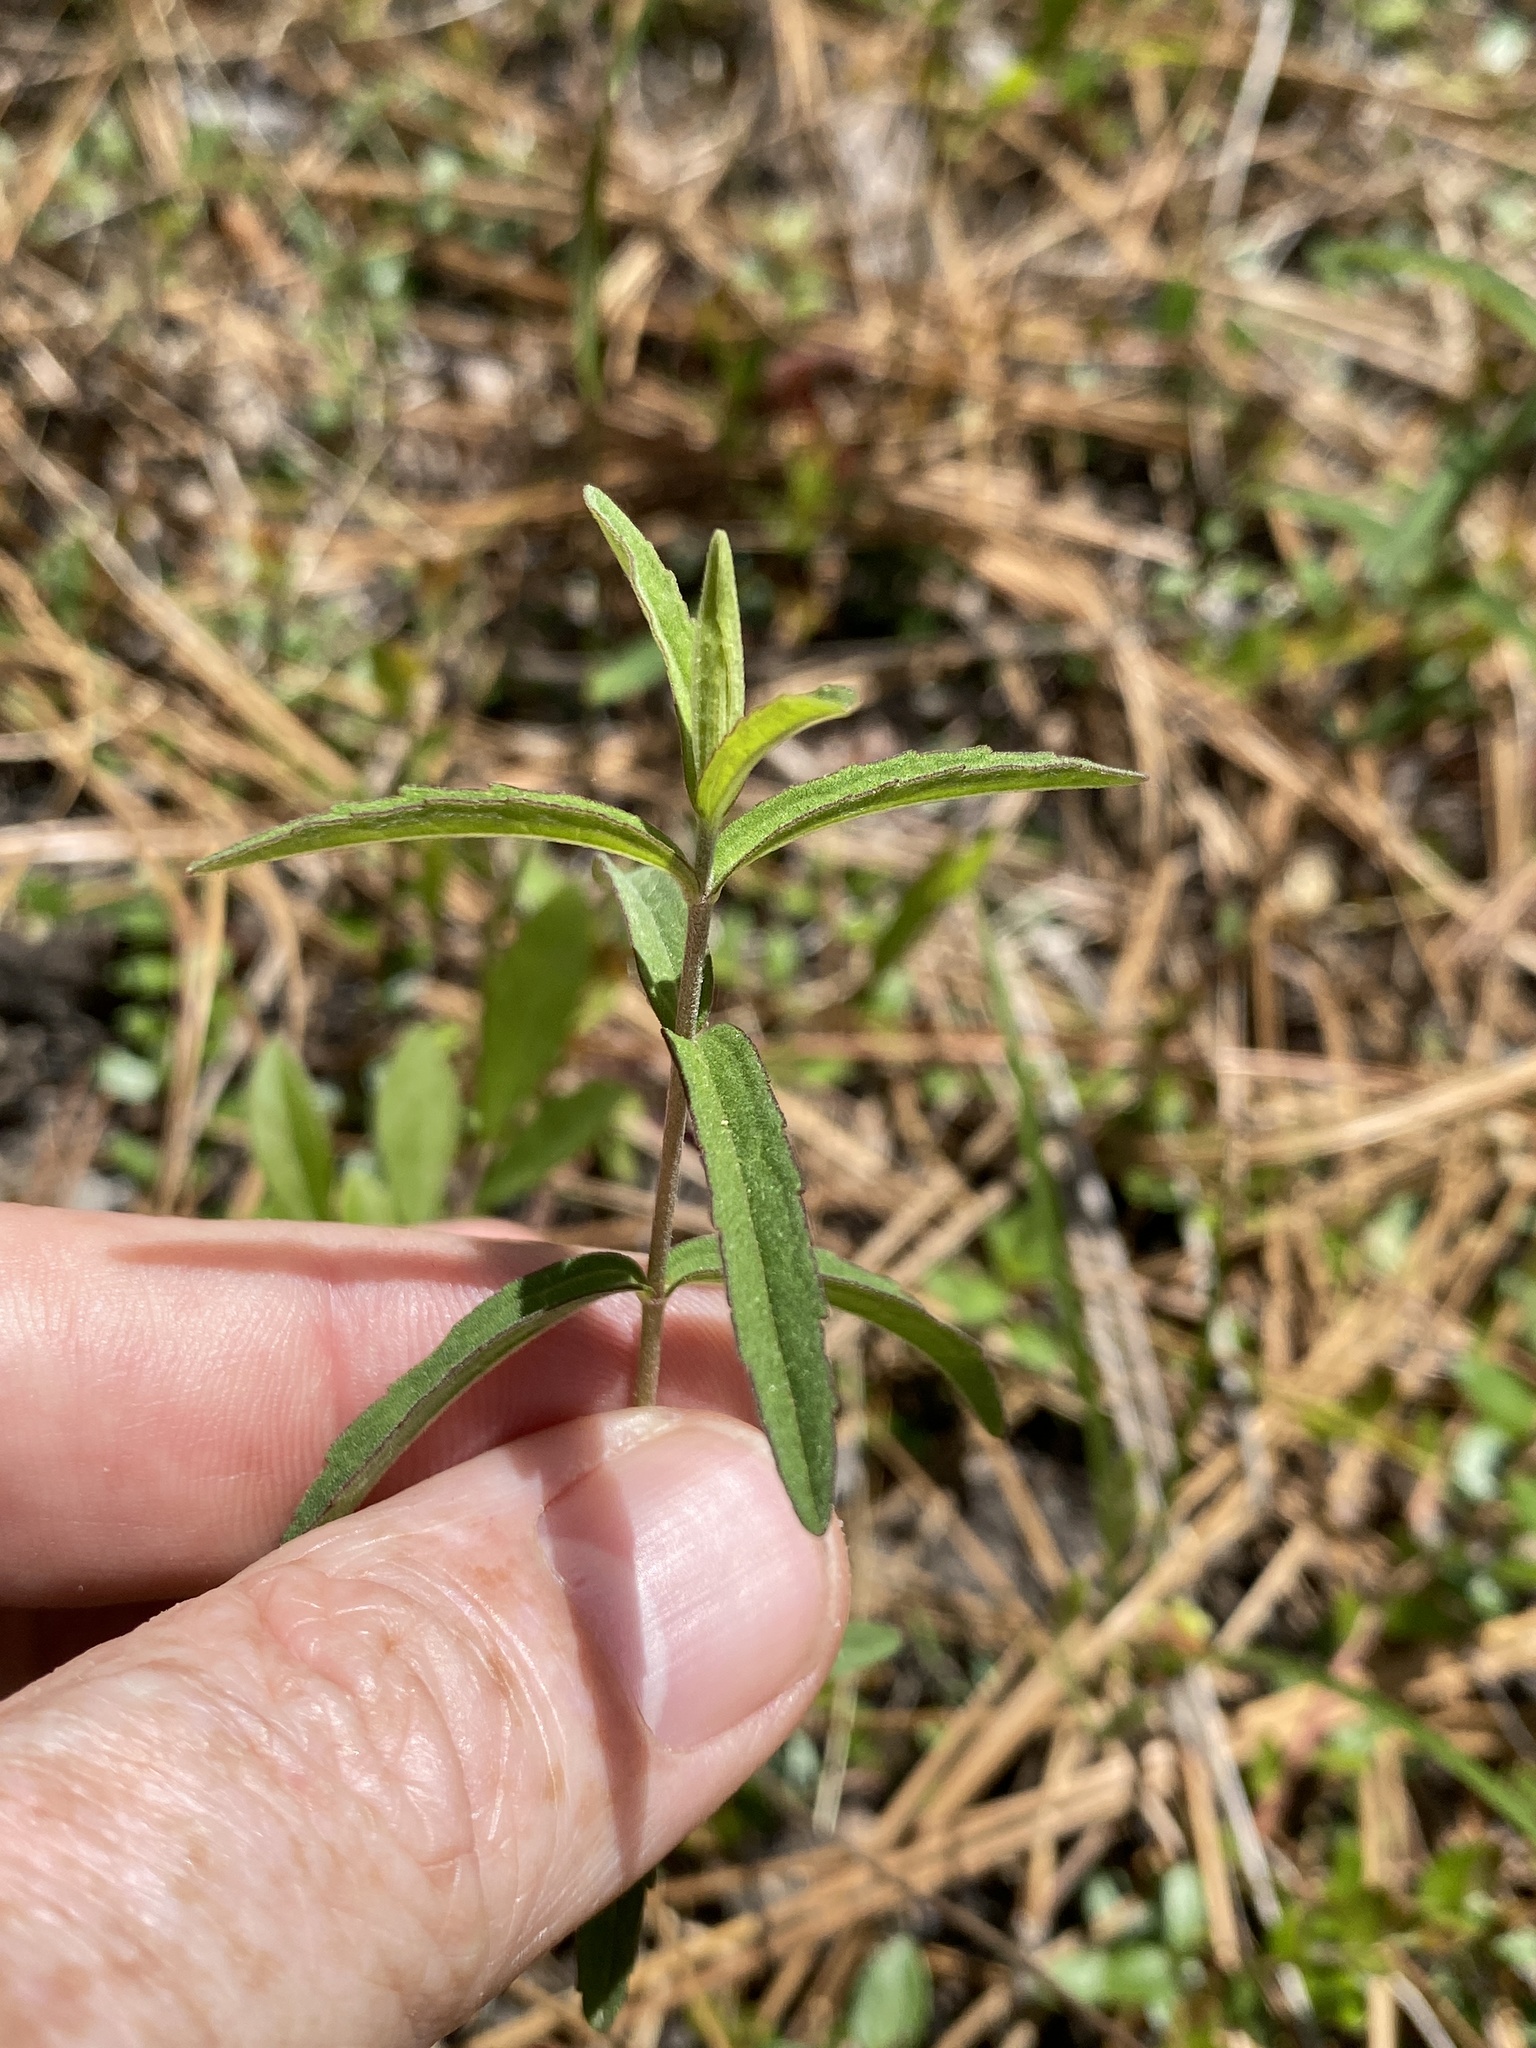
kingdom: Plantae
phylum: Tracheophyta
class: Magnoliopsida
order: Asterales
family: Asteraceae
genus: Eupatorium
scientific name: Eupatorium leucolepis
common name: Justiceweed
